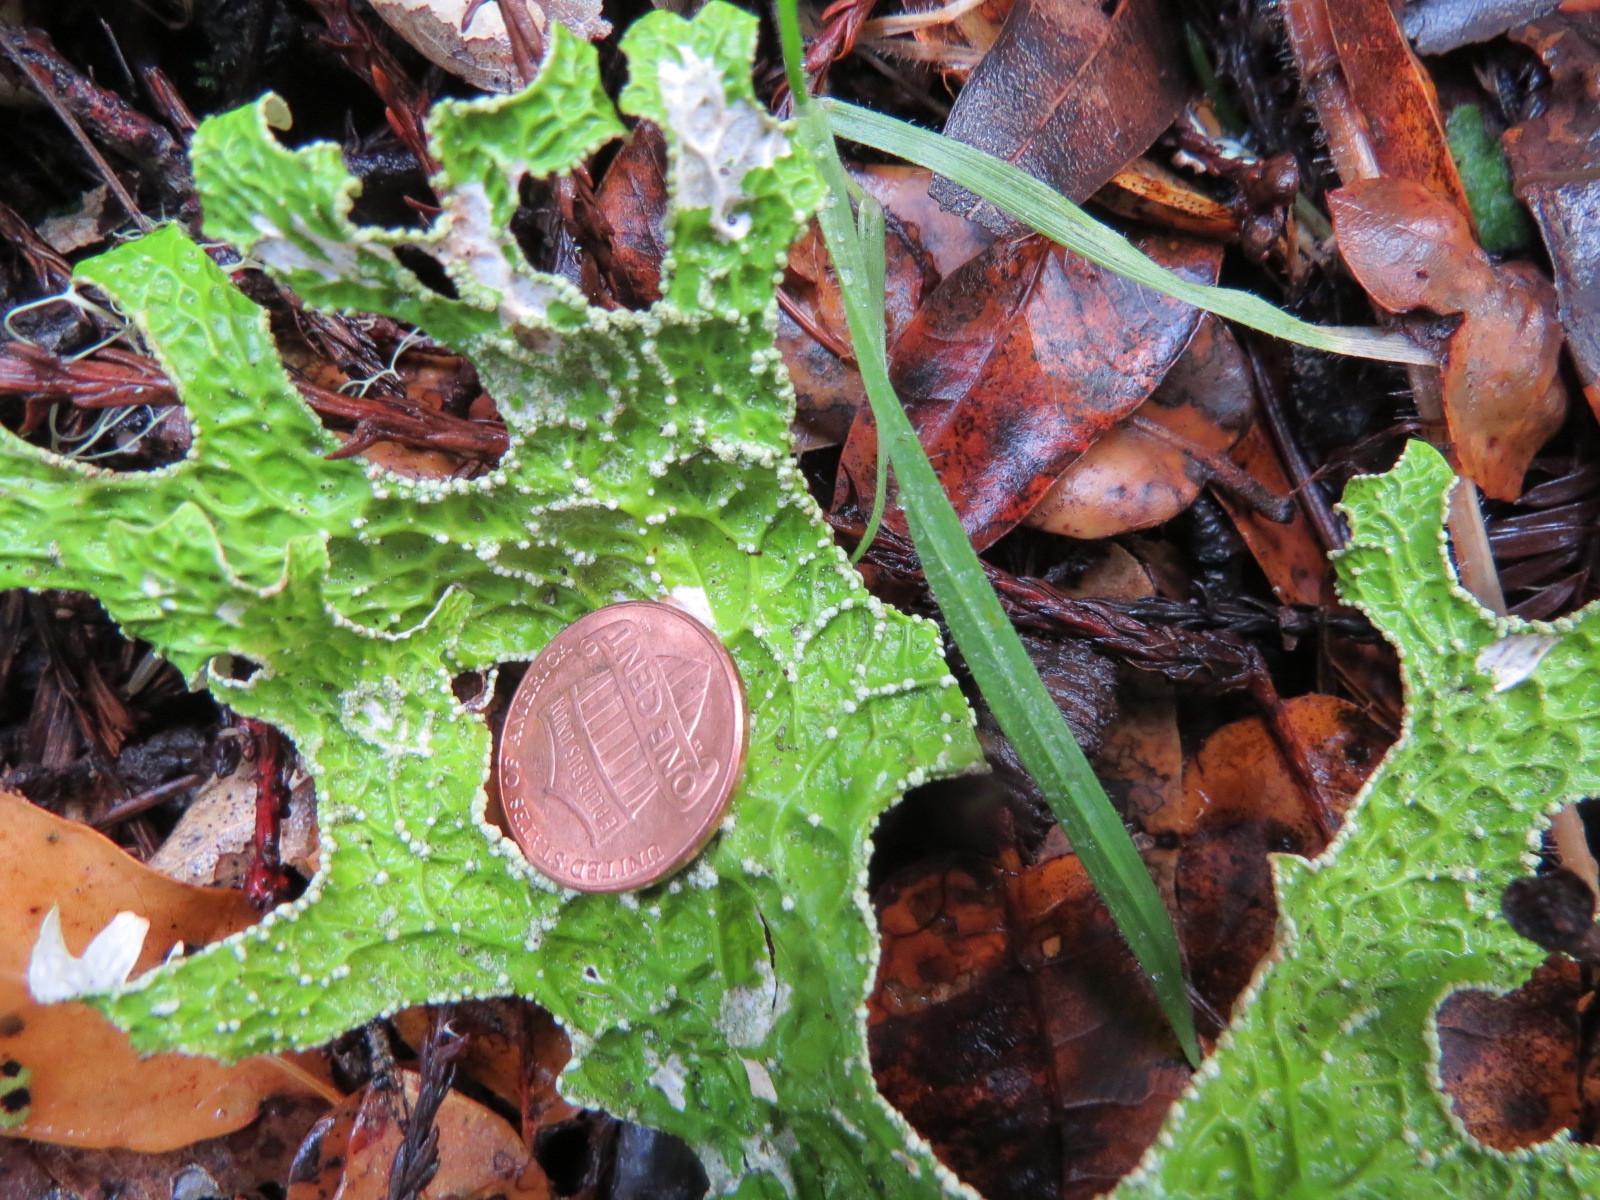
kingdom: Fungi
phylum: Ascomycota
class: Lecanoromycetes
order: Peltigerales
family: Lobariaceae
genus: Lobaria
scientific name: Lobaria pulmonaria
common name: Lungwort
